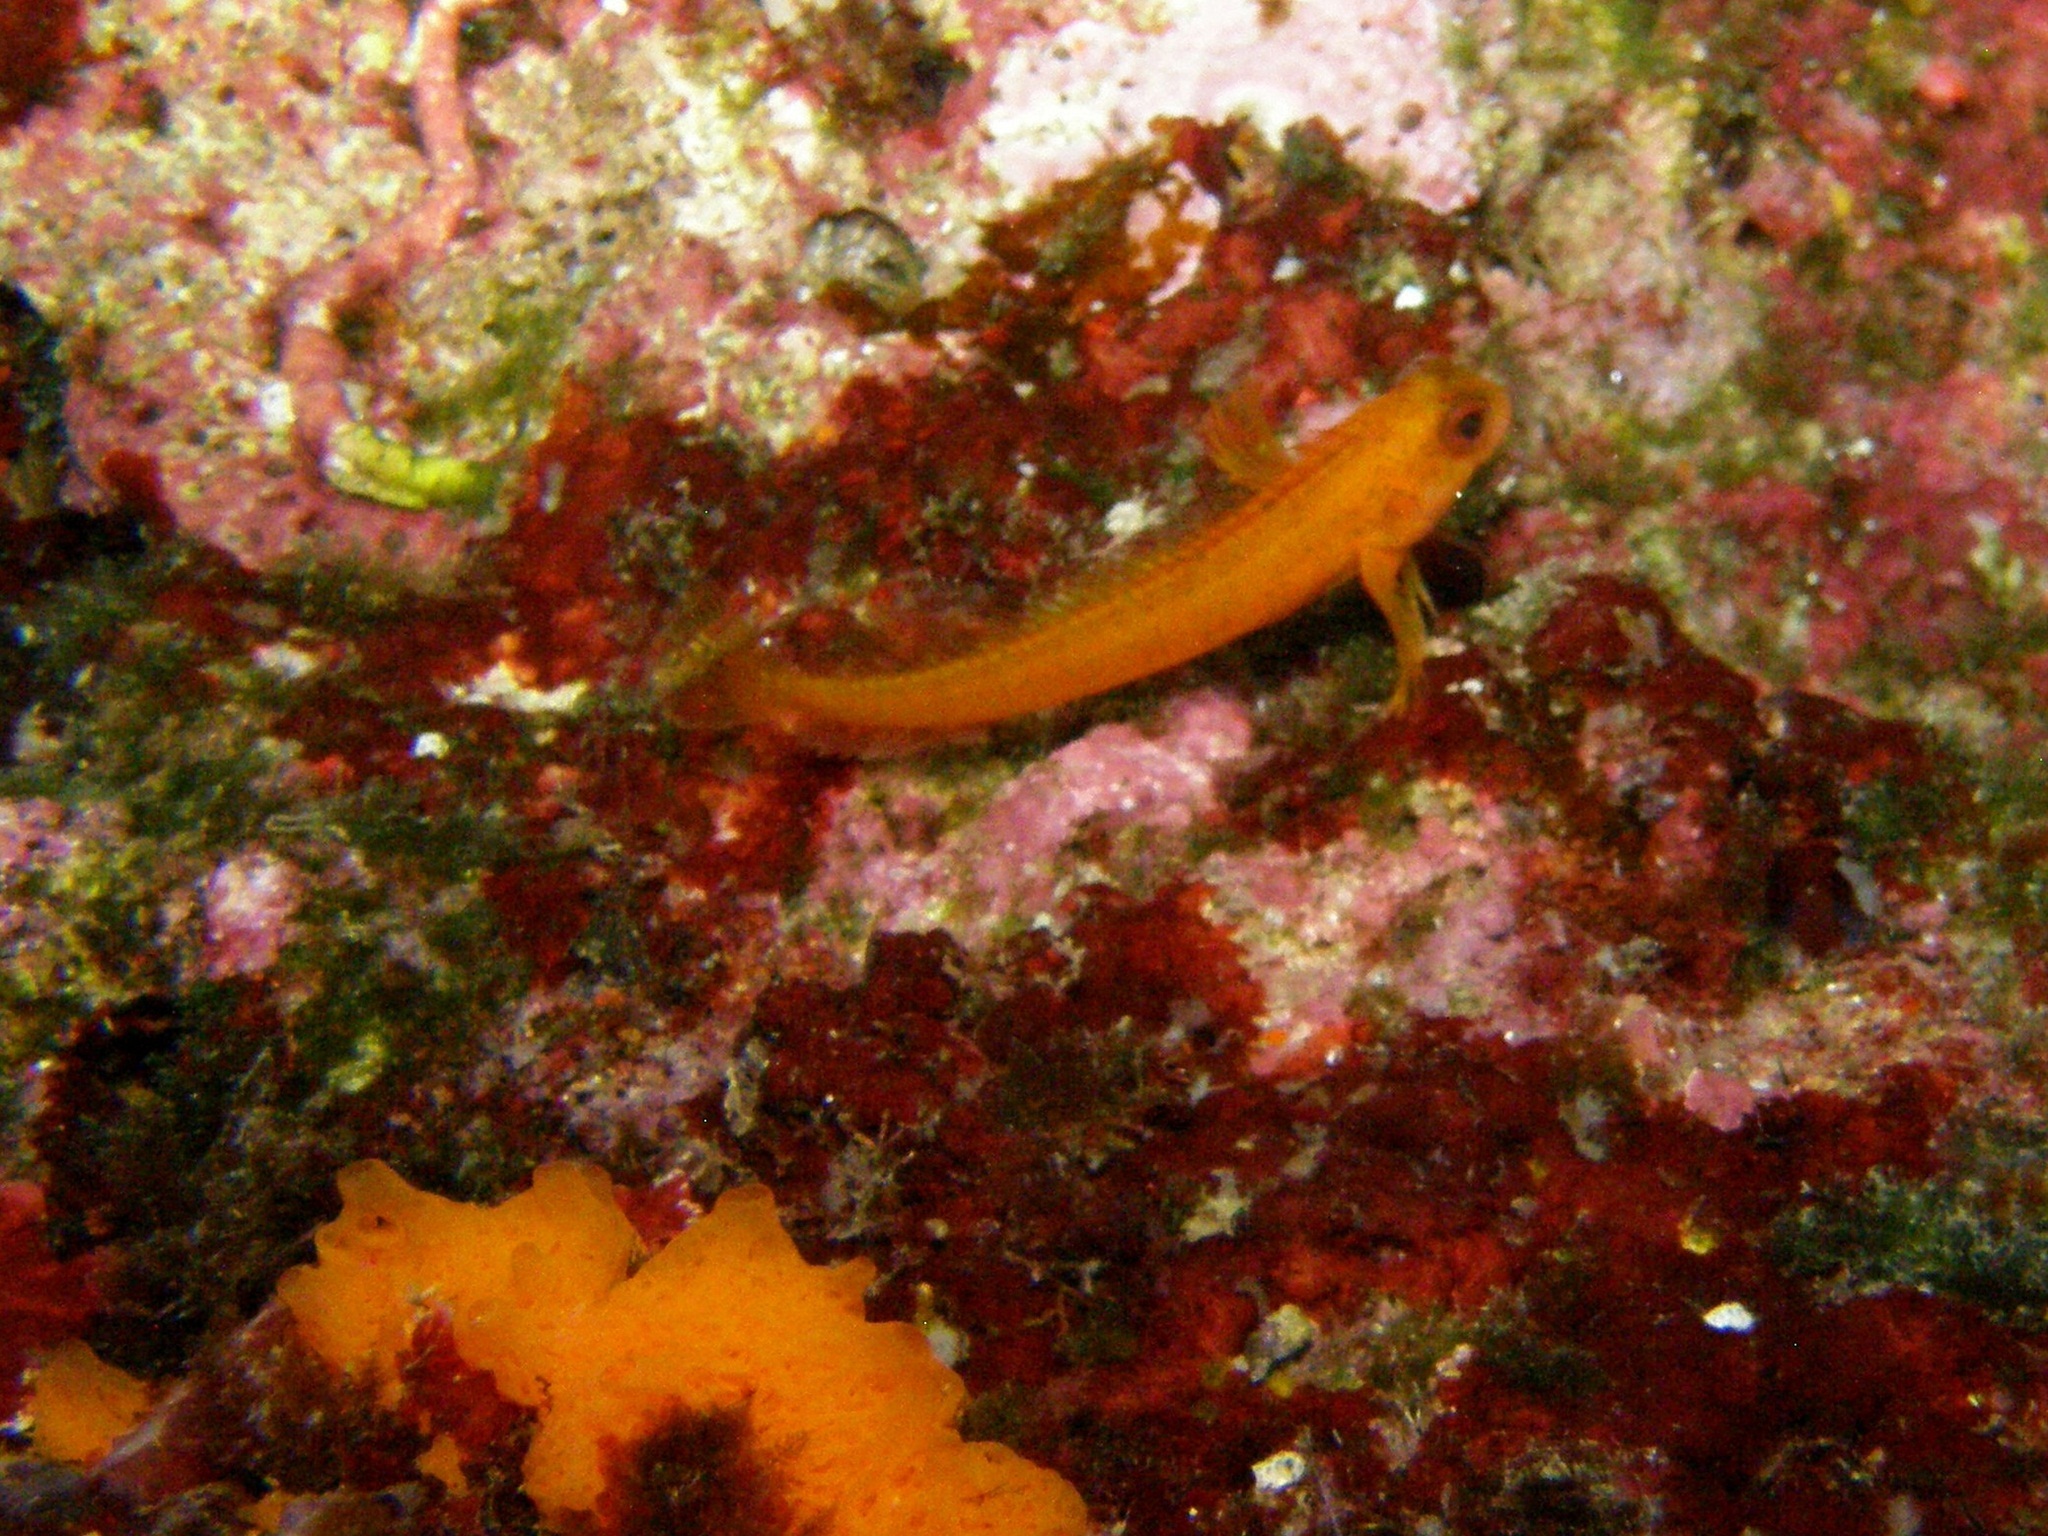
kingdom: Animalia
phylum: Chordata
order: Perciformes
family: Blenniidae
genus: Parablennius
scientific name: Parablennius pilicornis
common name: Ringneck blenny
